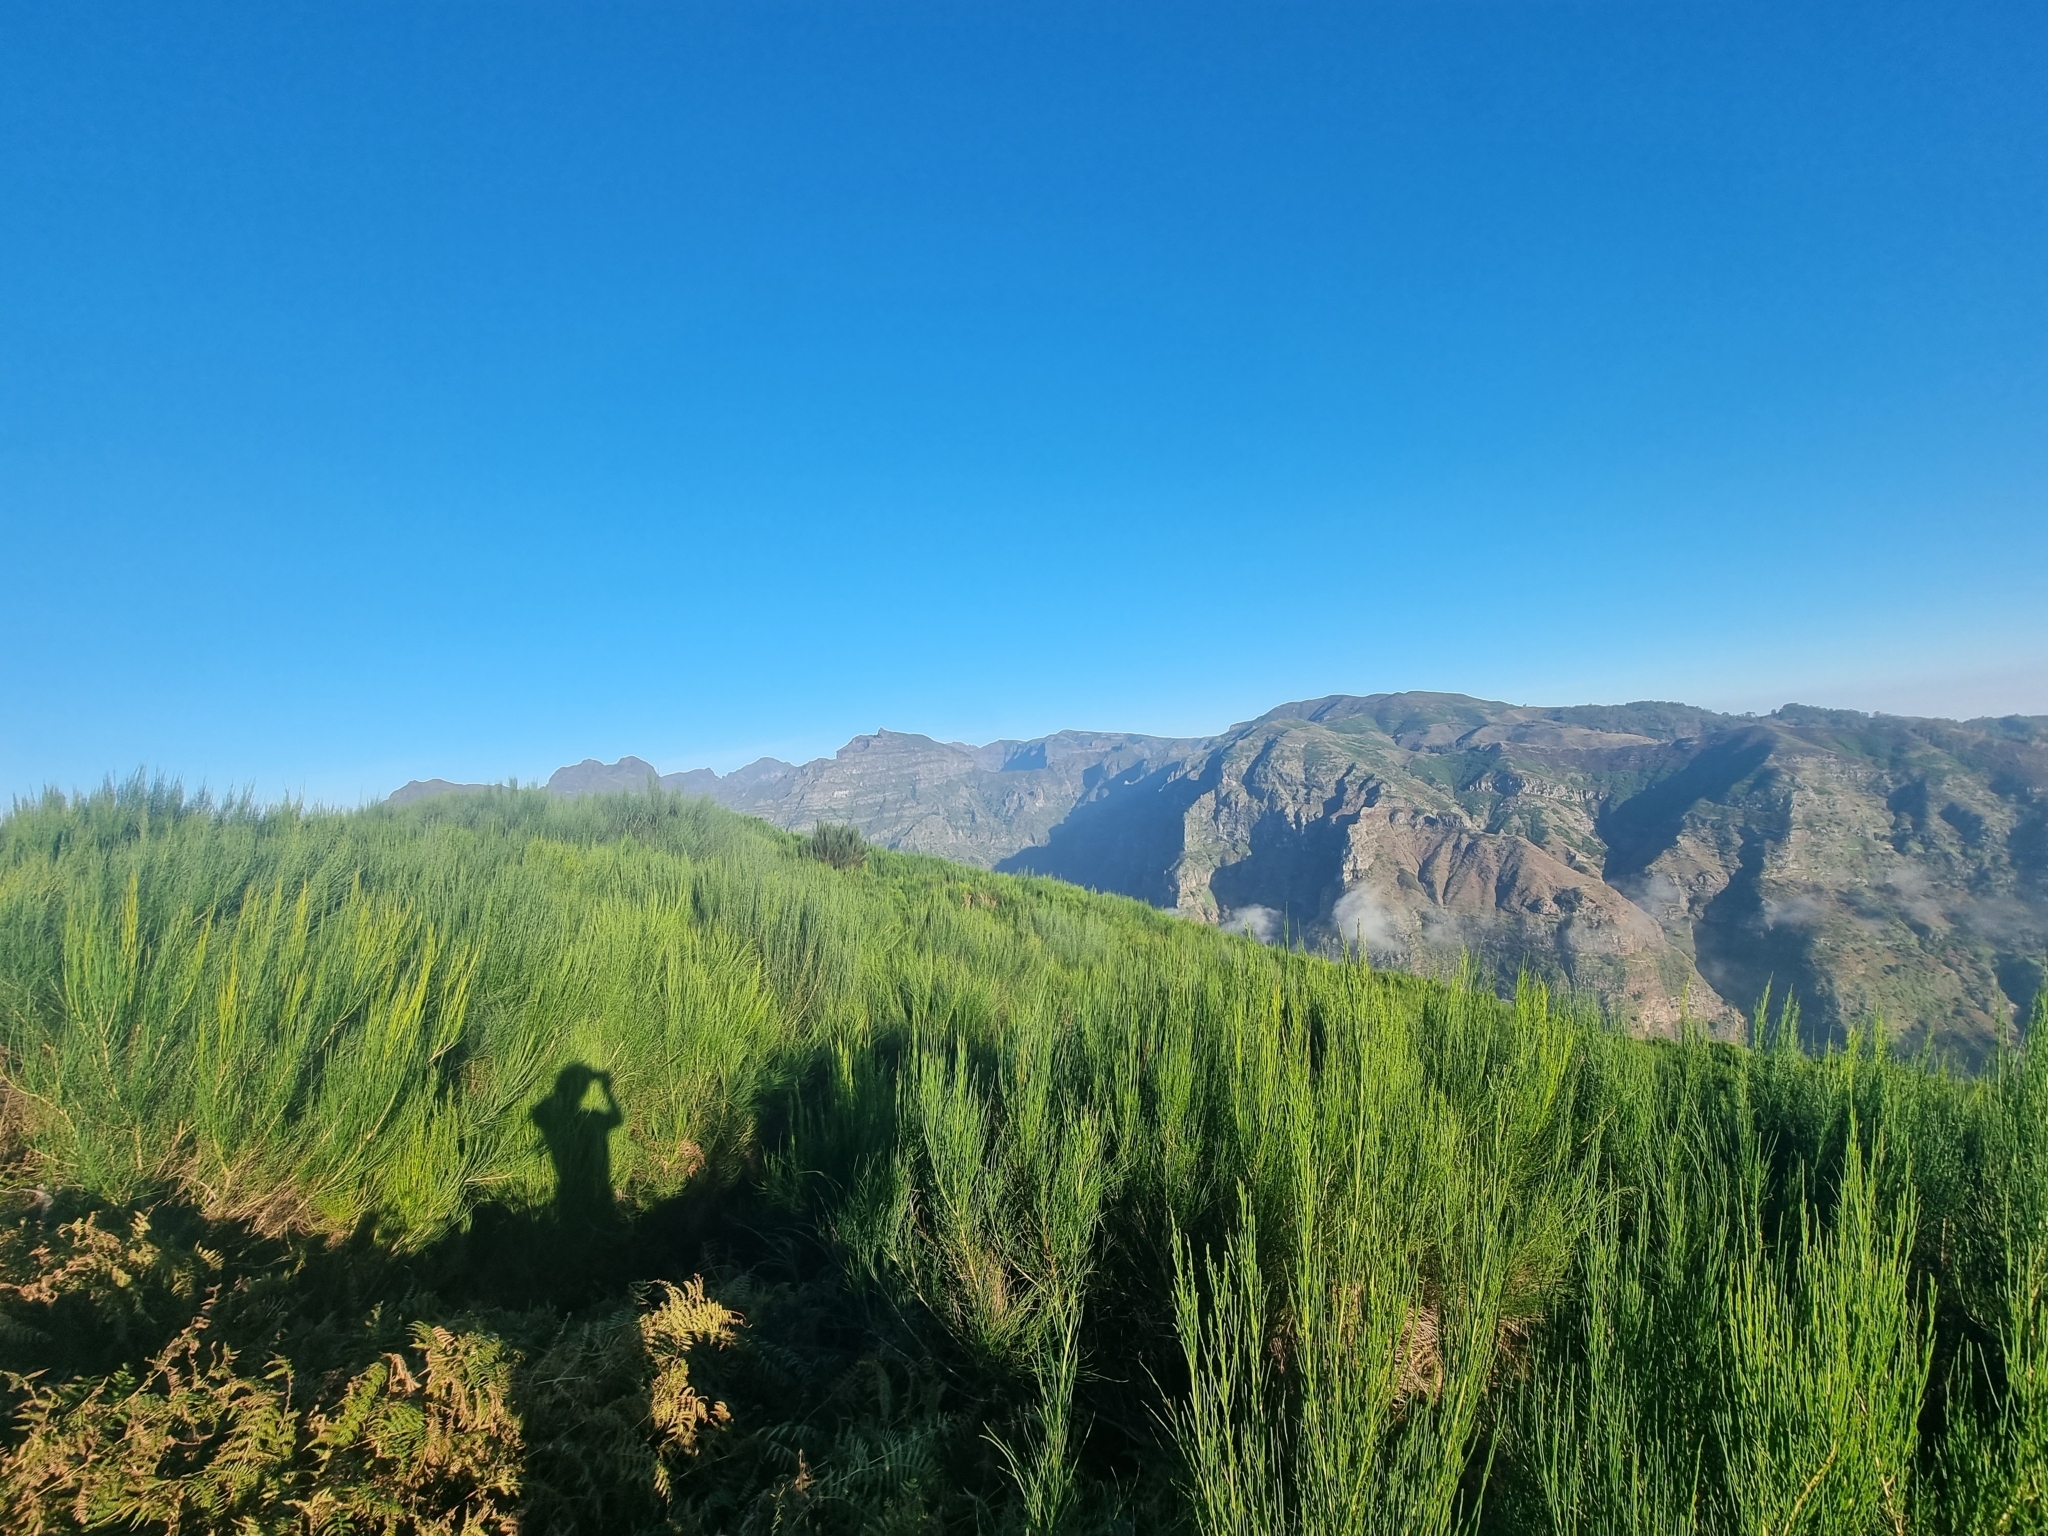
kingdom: Plantae
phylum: Tracheophyta
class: Magnoliopsida
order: Fabales
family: Fabaceae
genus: Cytisus
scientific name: Cytisus scoparius
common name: Scotch broom
